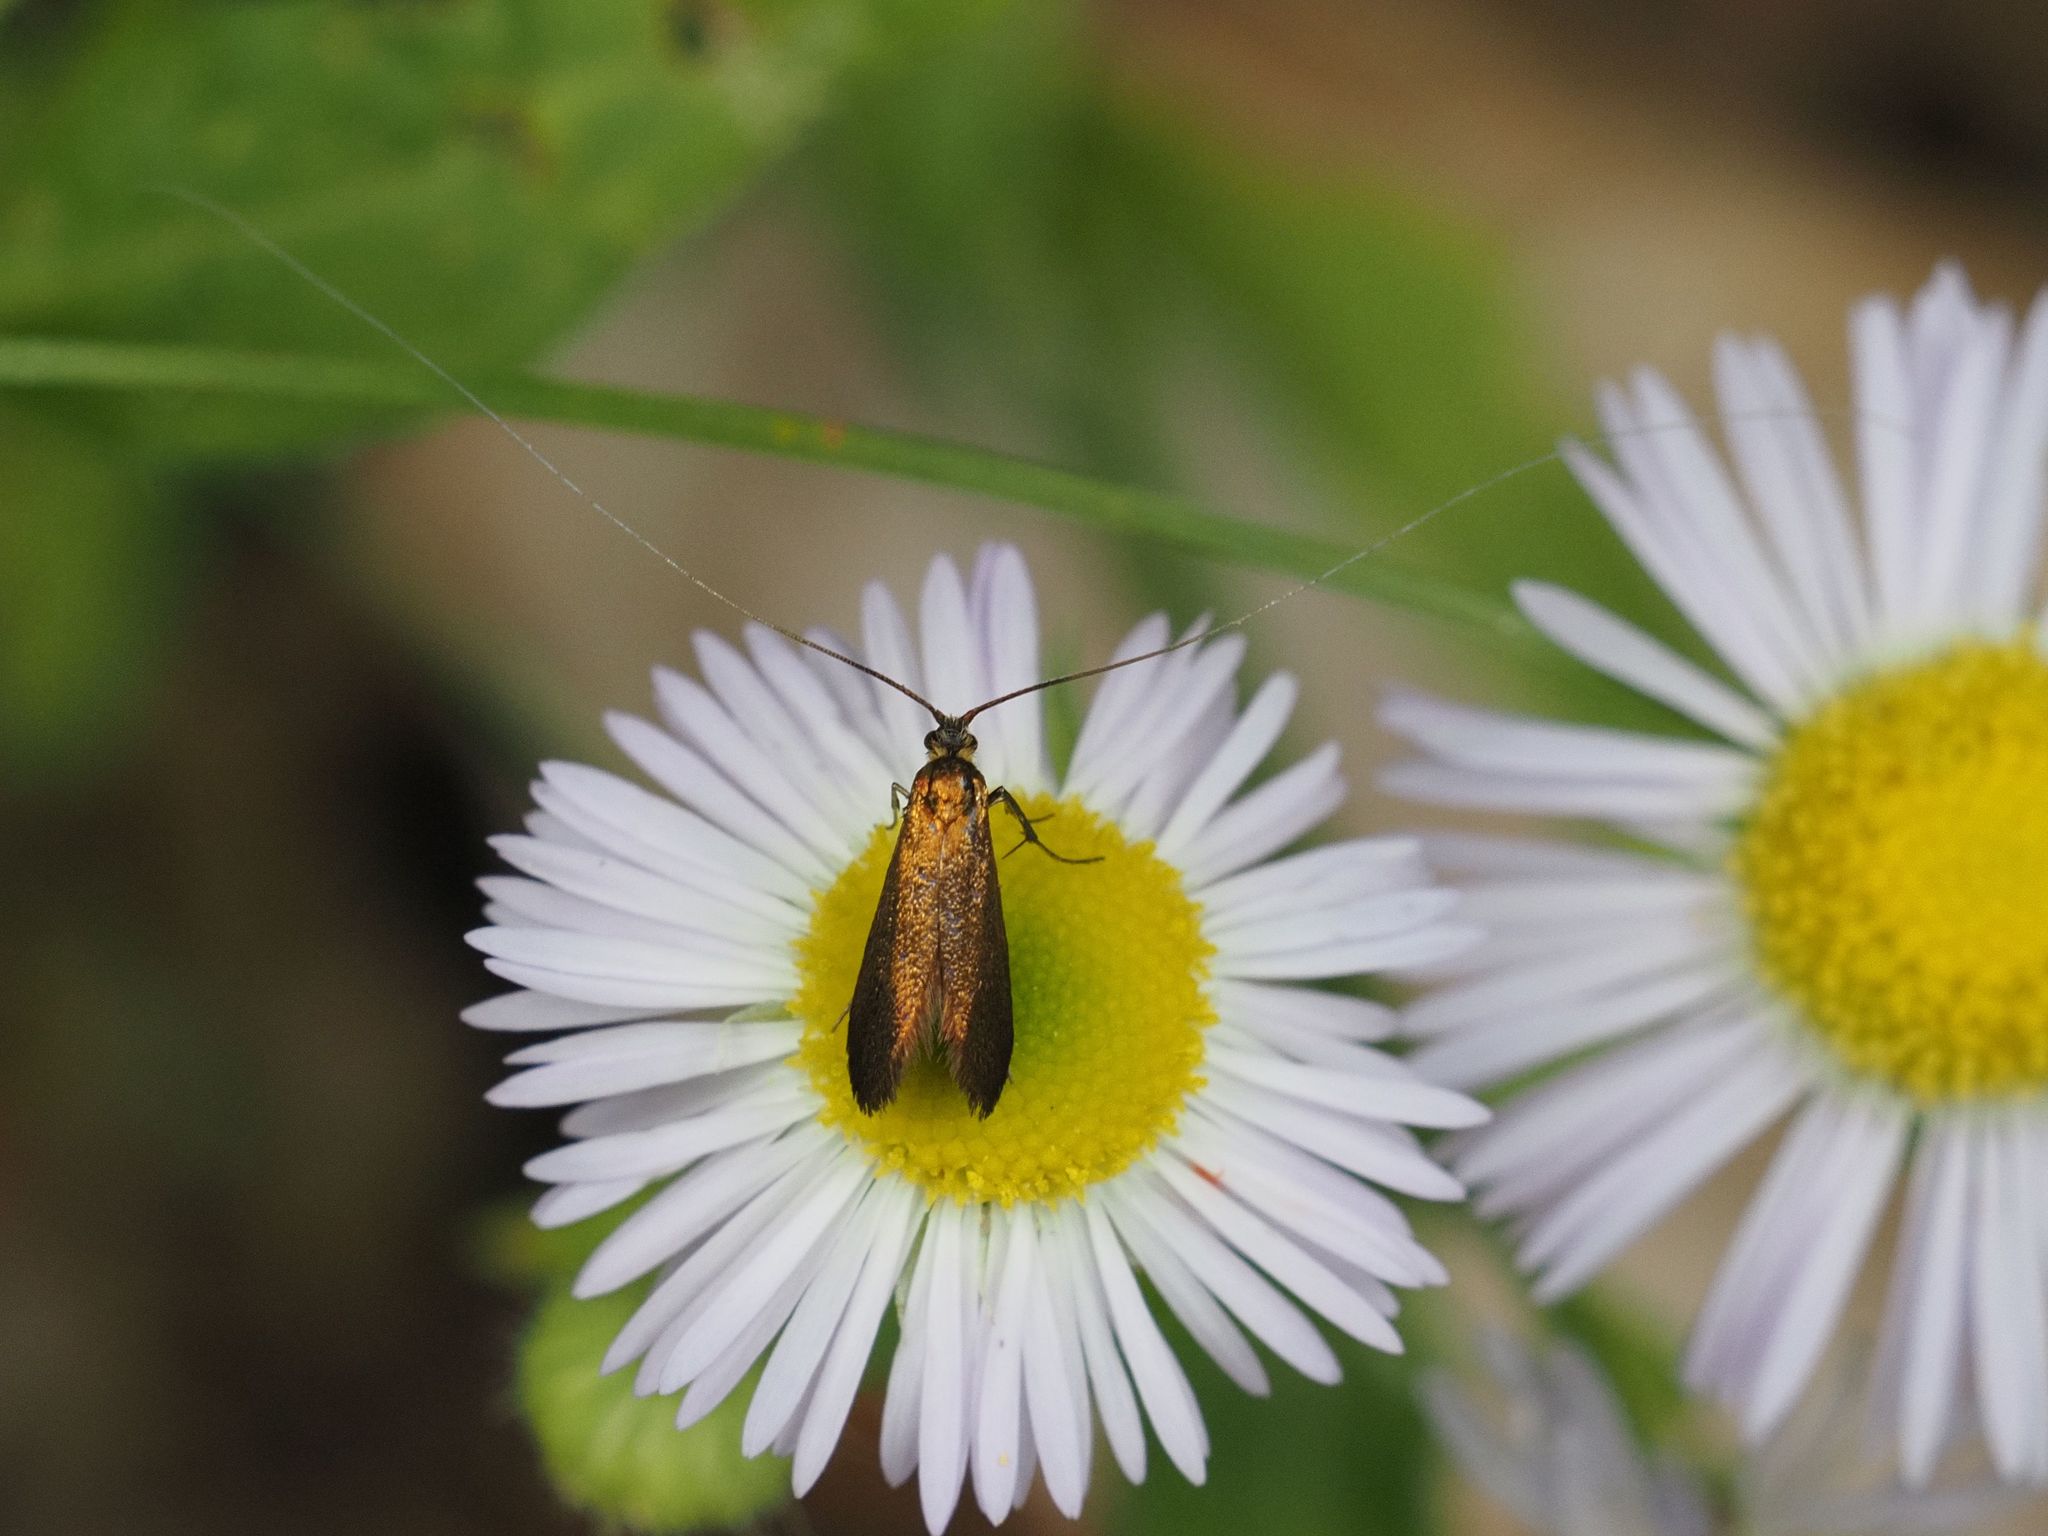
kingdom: Animalia
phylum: Arthropoda
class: Insecta
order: Lepidoptera
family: Adelidae
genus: Adela
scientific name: Adela violella
